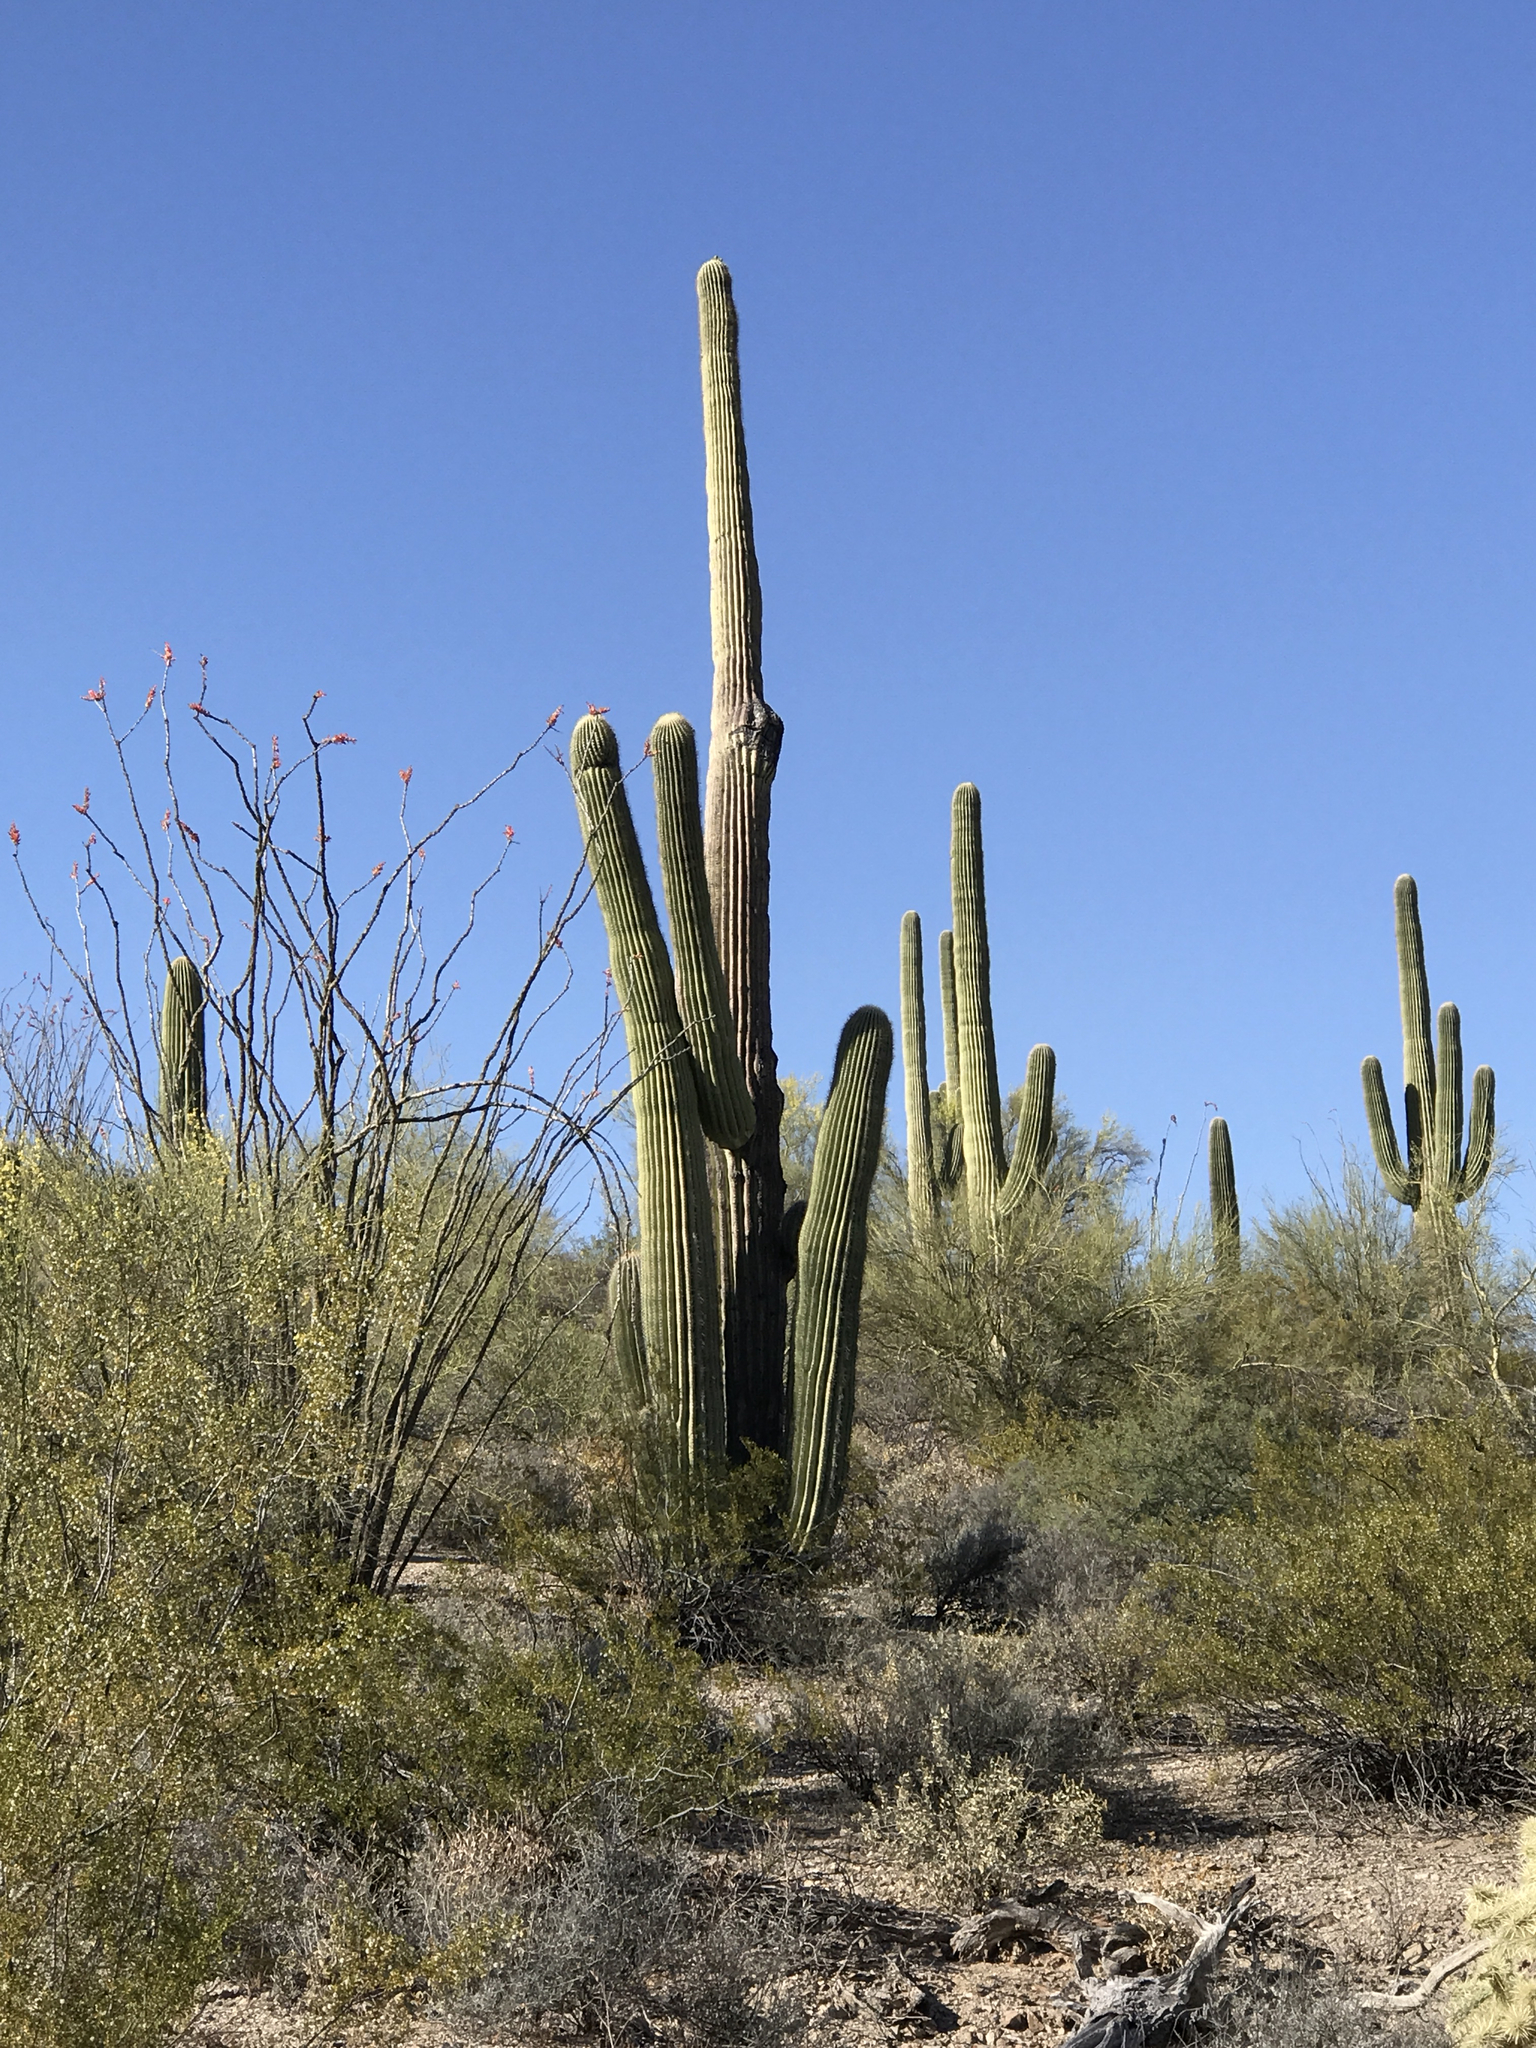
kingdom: Plantae
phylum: Tracheophyta
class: Magnoliopsida
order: Caryophyllales
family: Cactaceae
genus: Carnegiea
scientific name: Carnegiea gigantea
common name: Saguaro
